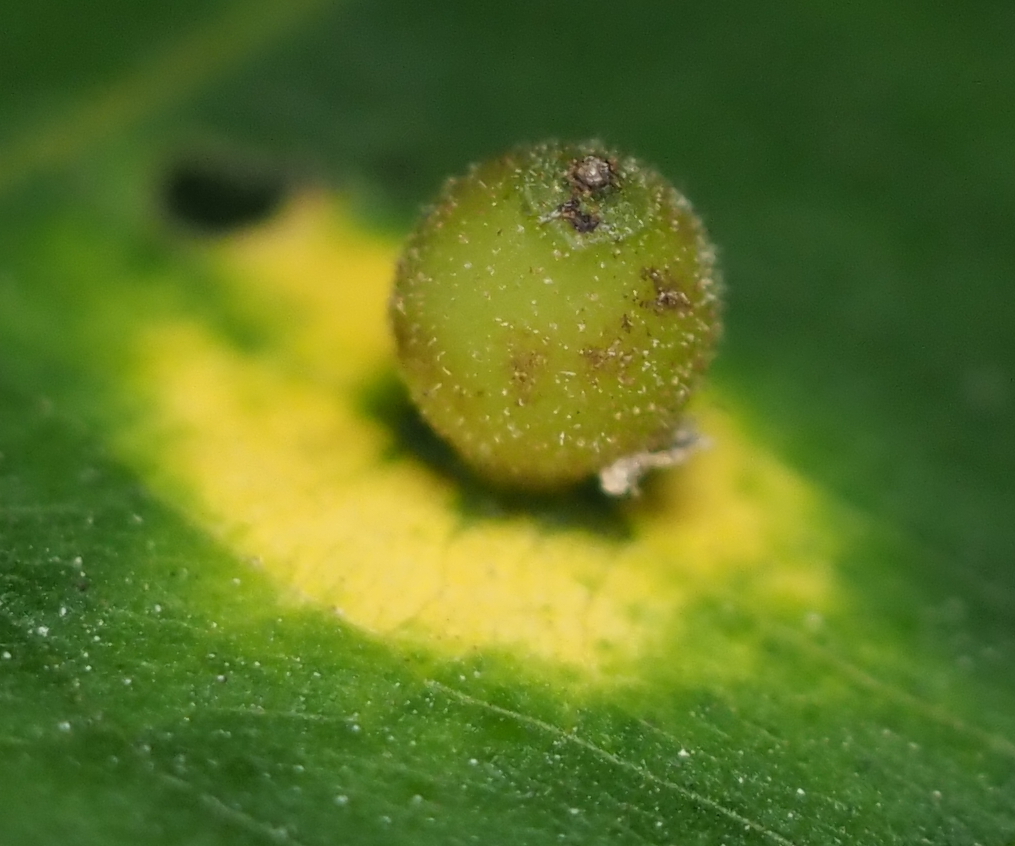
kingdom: Animalia
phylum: Arthropoda
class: Insecta
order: Diptera
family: Cecidomyiidae
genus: Caryomyia
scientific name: Caryomyia viscidolium
